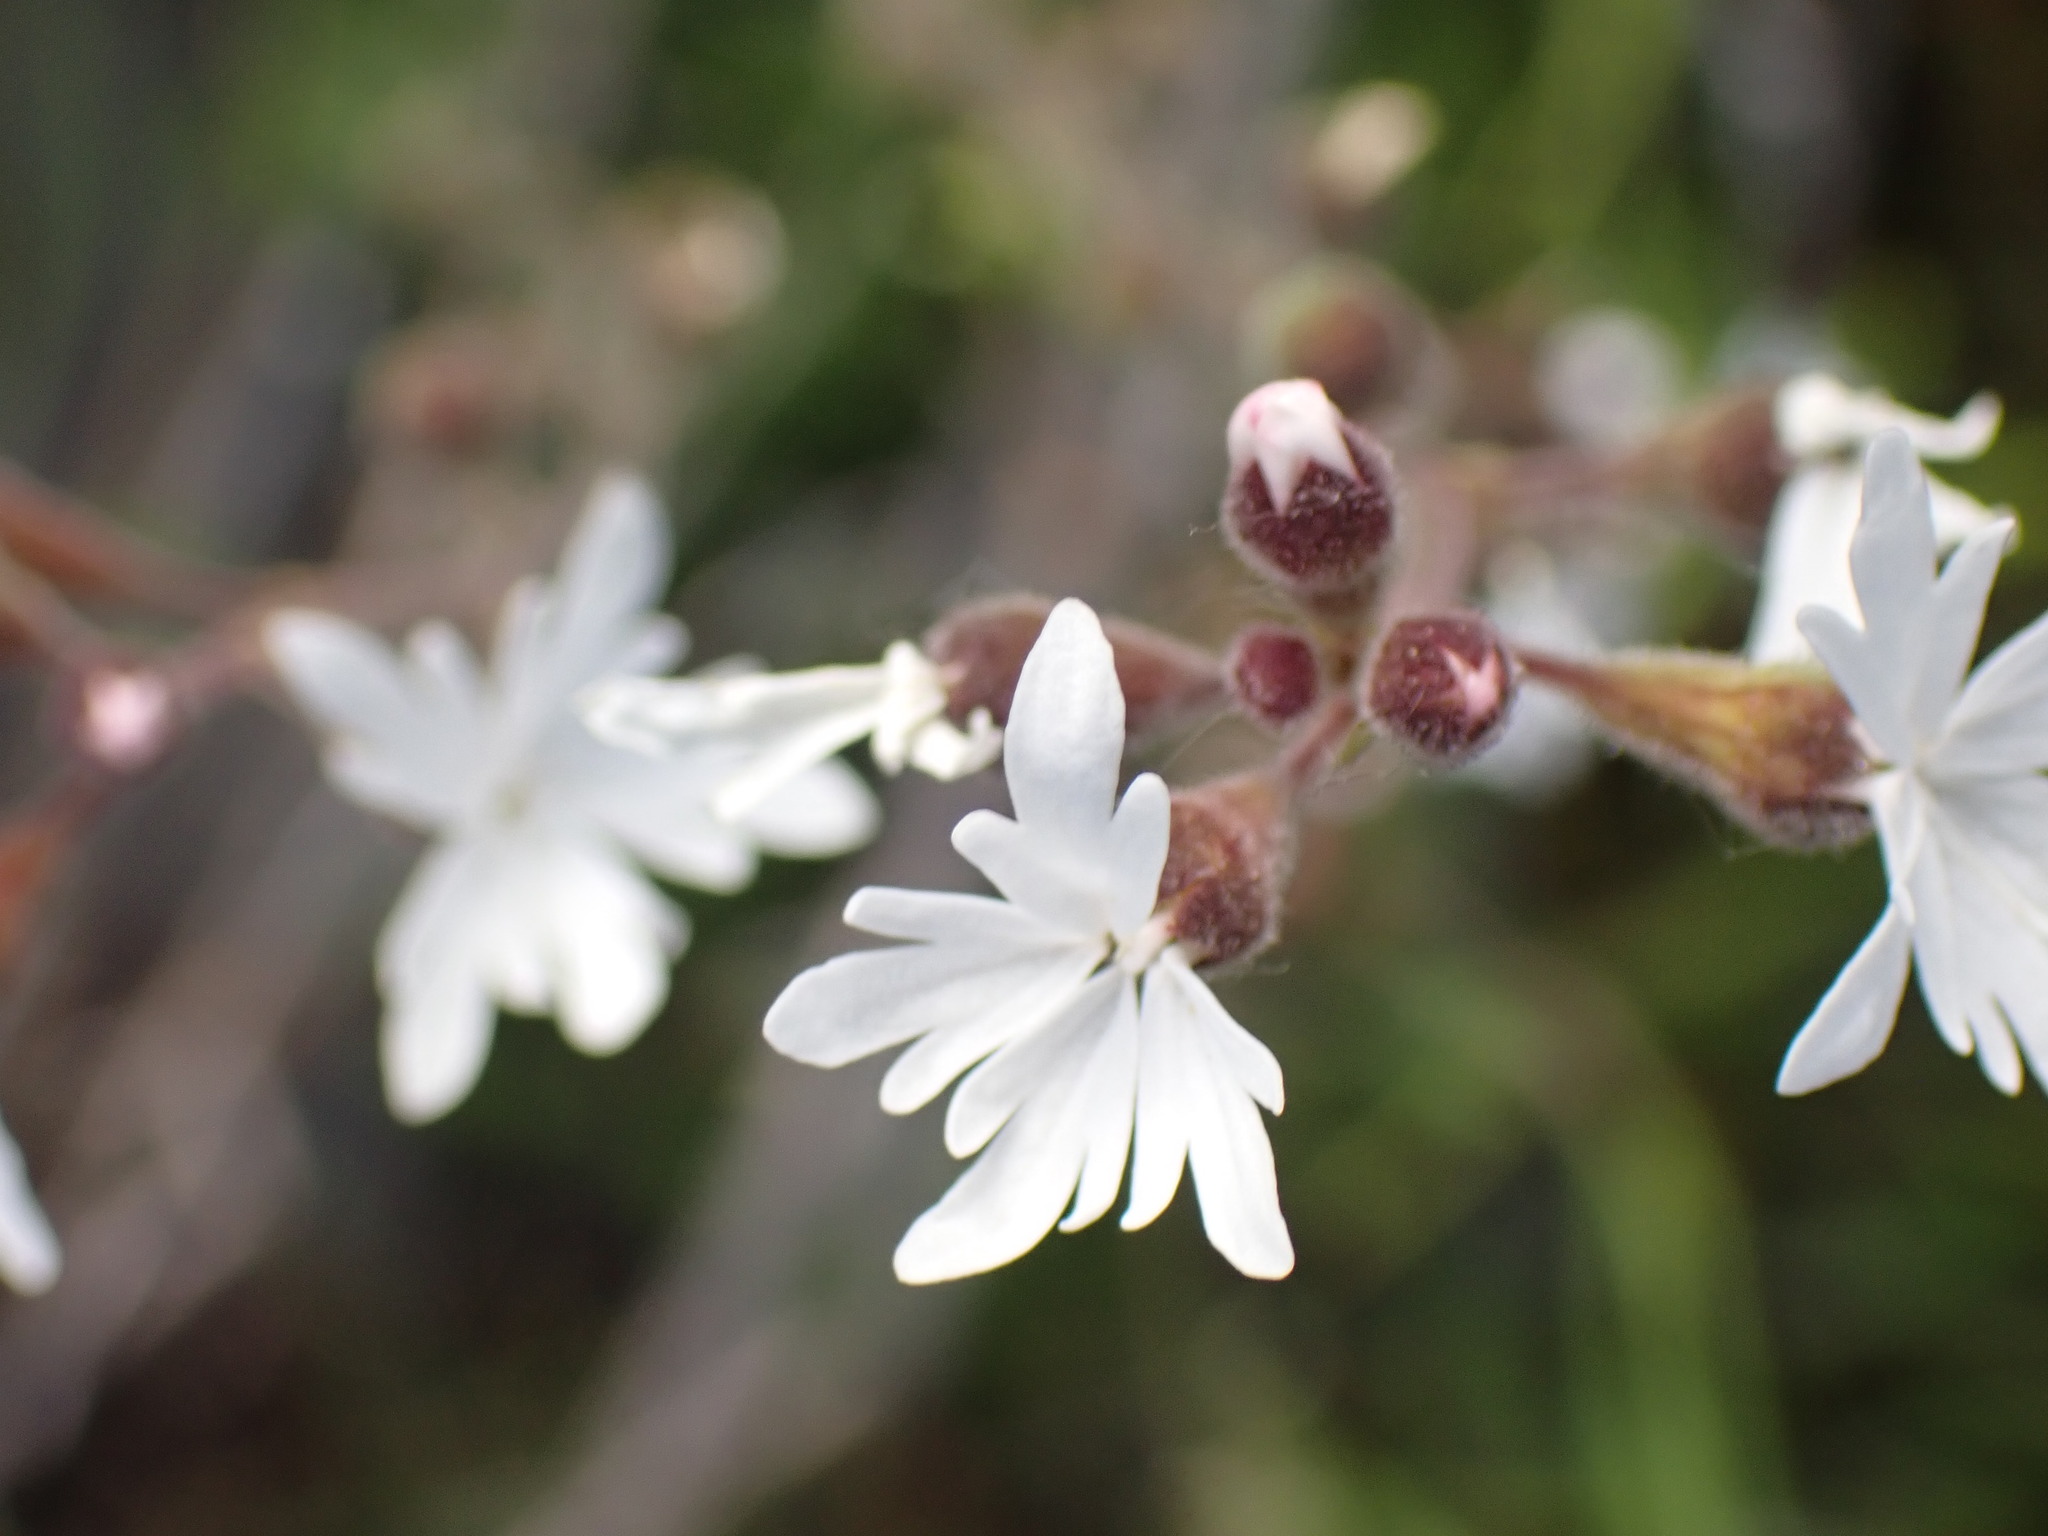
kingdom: Plantae
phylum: Tracheophyta
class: Magnoliopsida
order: Saxifragales
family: Saxifragaceae
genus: Lithophragma
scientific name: Lithophragma parviflorum
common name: Small-flowered fringe-cup
